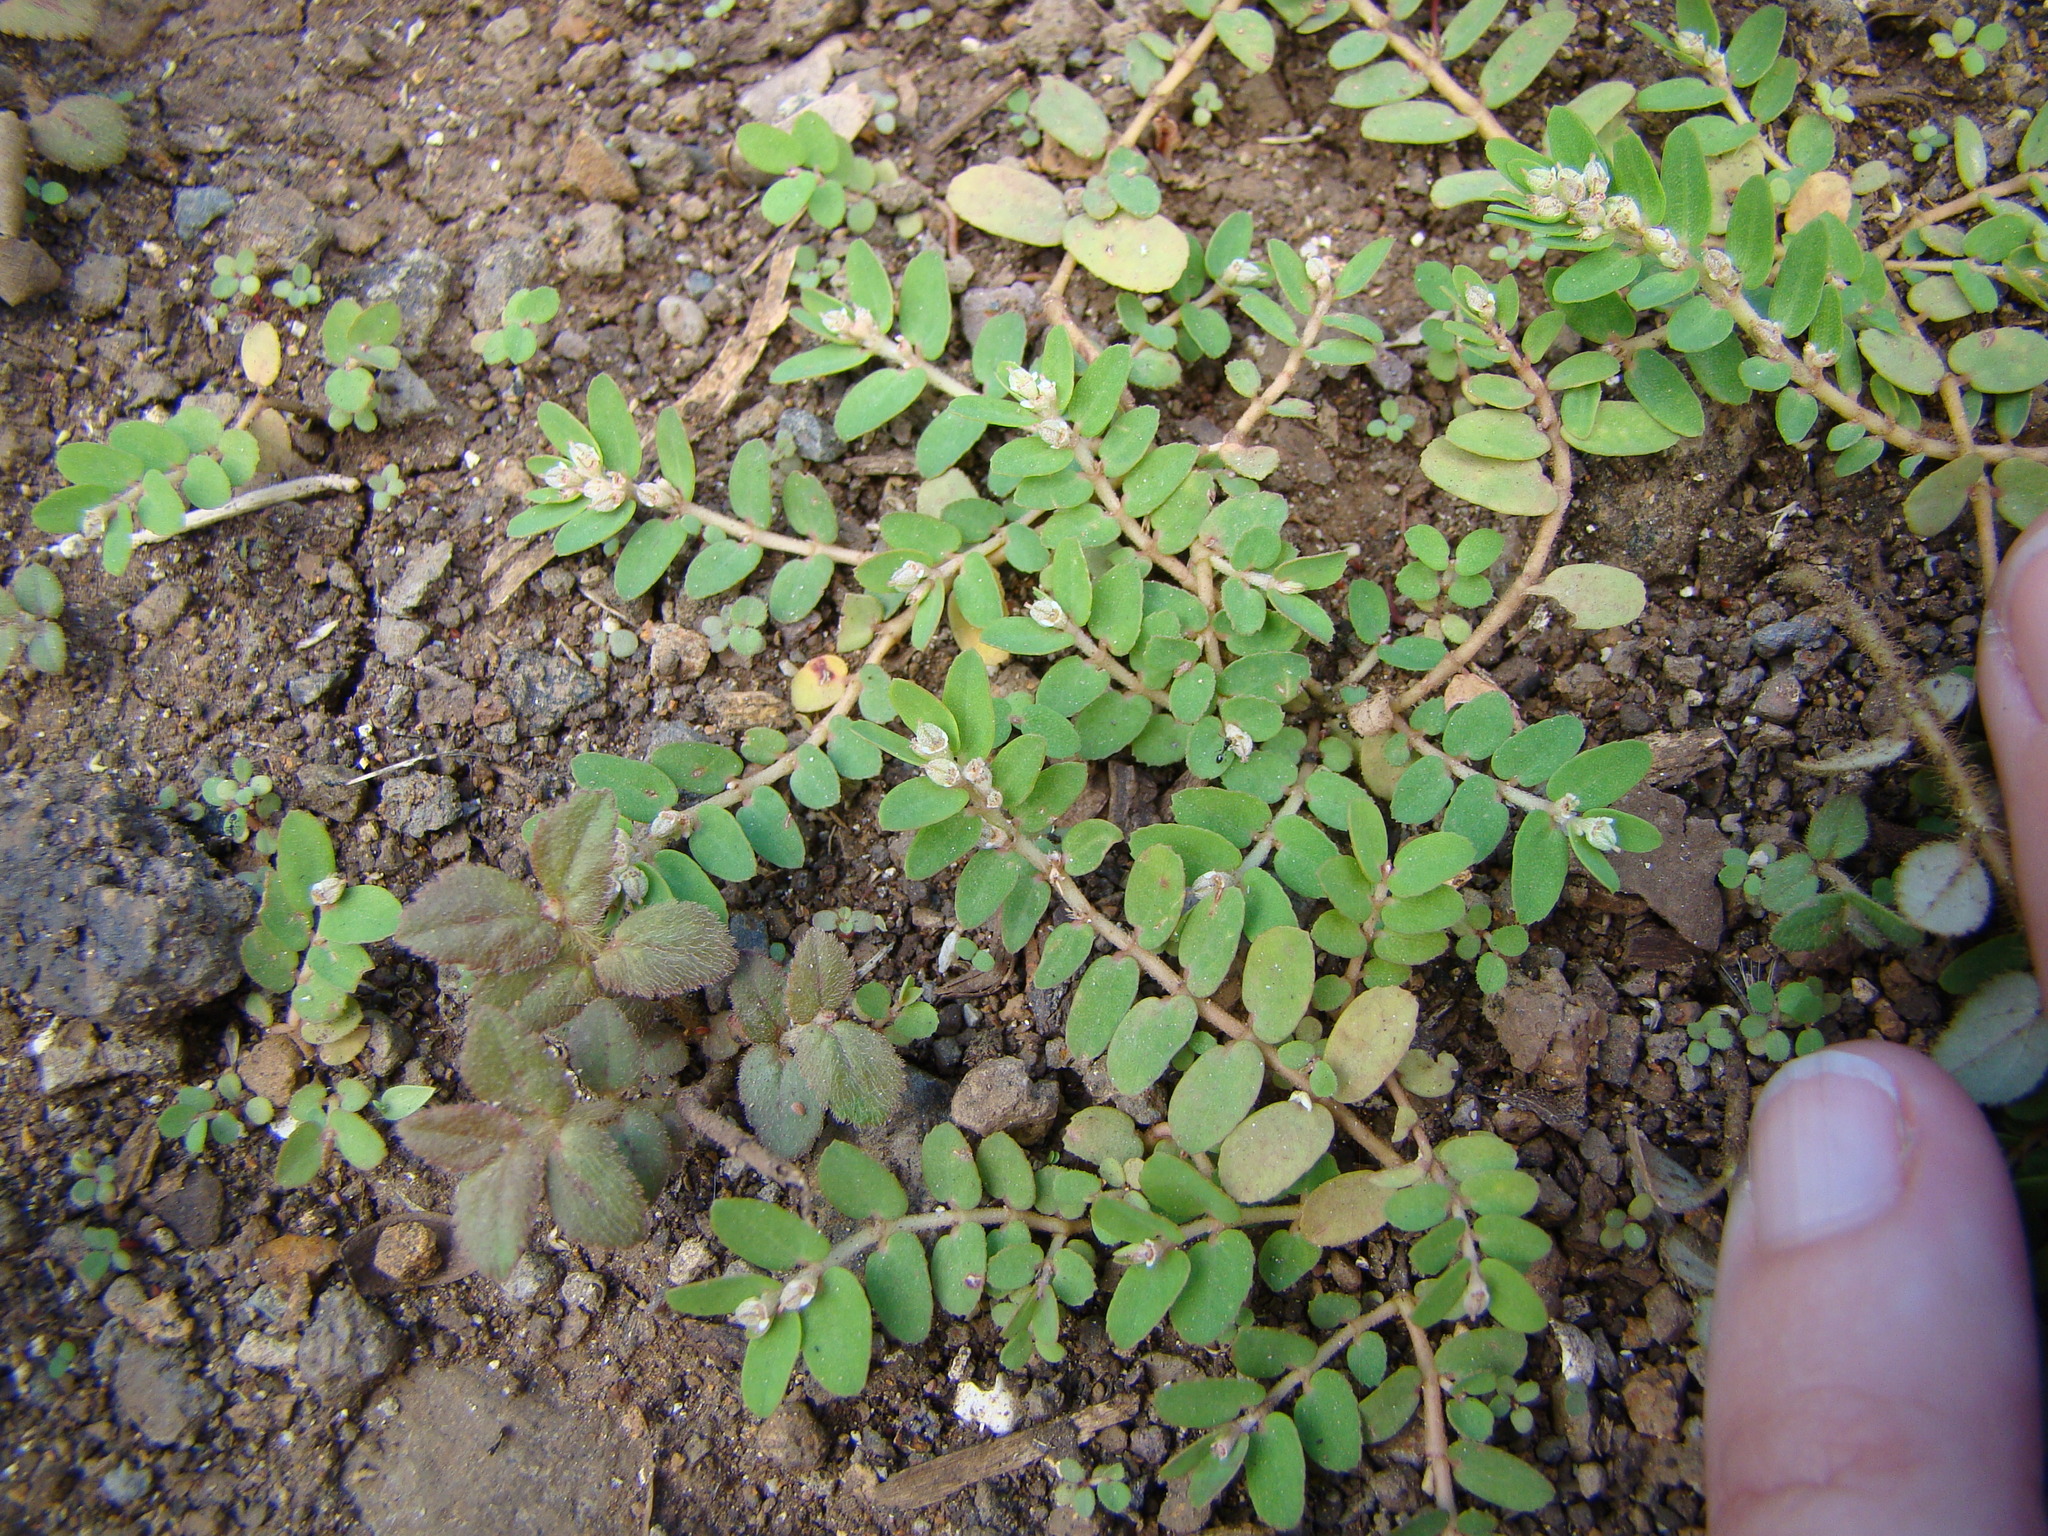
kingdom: Plantae
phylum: Tracheophyta
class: Magnoliopsida
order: Malpighiales
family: Euphorbiaceae
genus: Euphorbia
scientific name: Euphorbia hirta
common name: Pillpod sandmat
